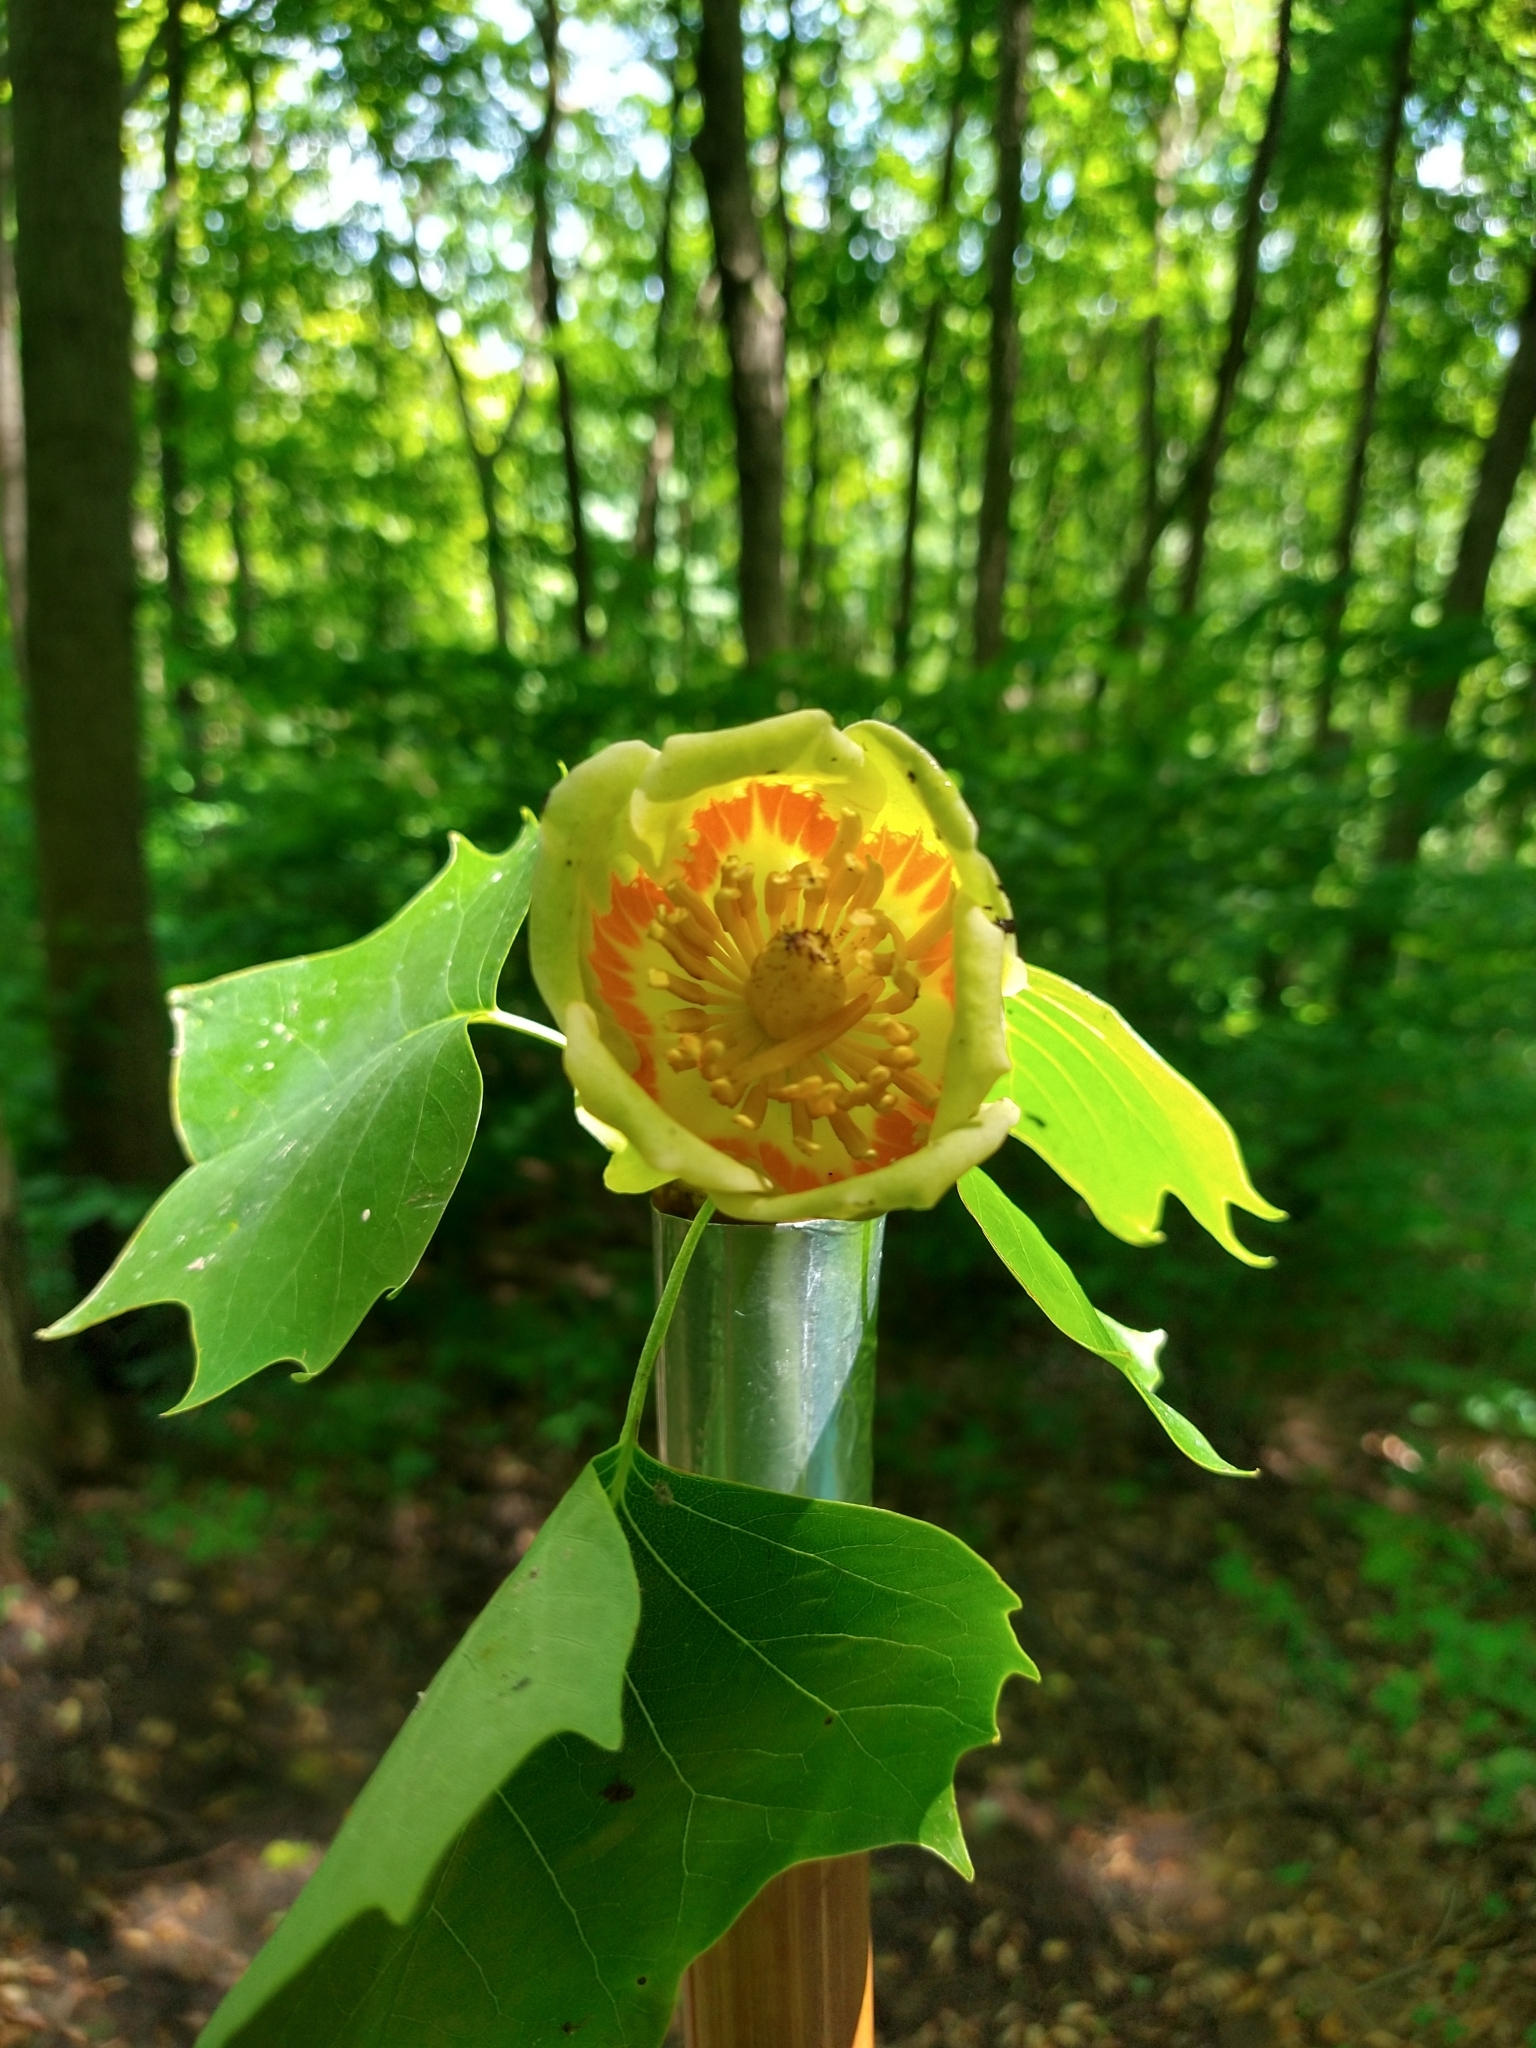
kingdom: Plantae
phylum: Tracheophyta
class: Magnoliopsida
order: Magnoliales
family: Magnoliaceae
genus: Liriodendron
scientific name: Liriodendron tulipifera
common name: Tulip tree
